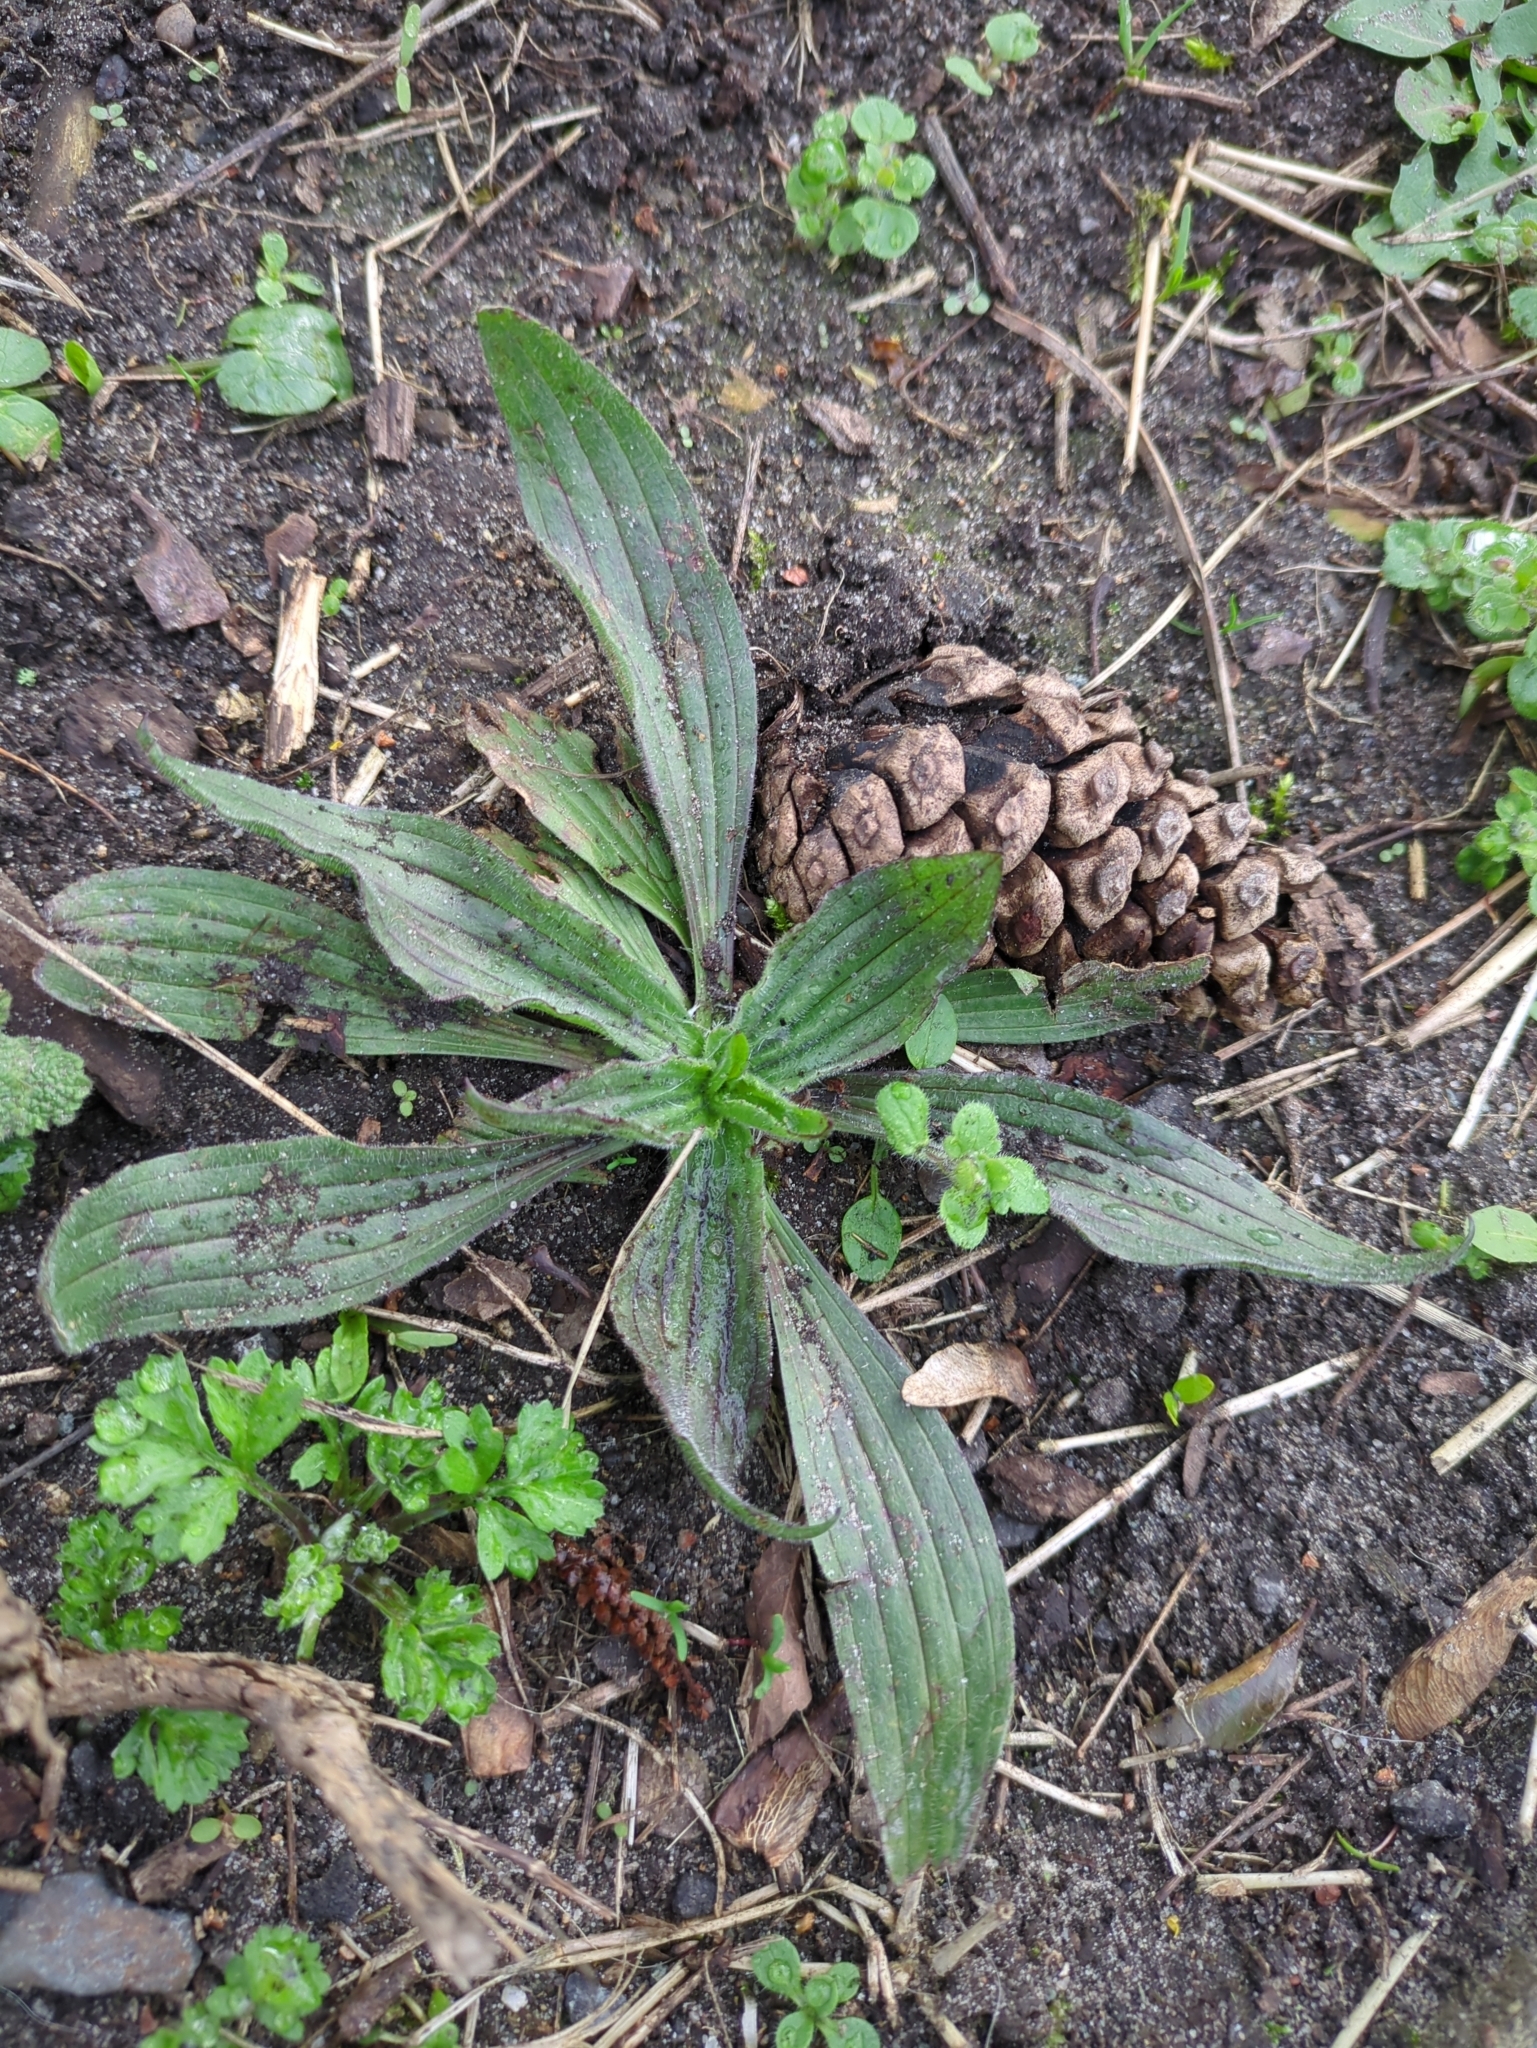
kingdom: Plantae
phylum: Tracheophyta
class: Magnoliopsida
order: Lamiales
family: Plantaginaceae
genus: Plantago
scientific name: Plantago lanceolata
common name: Ribwort plantain
